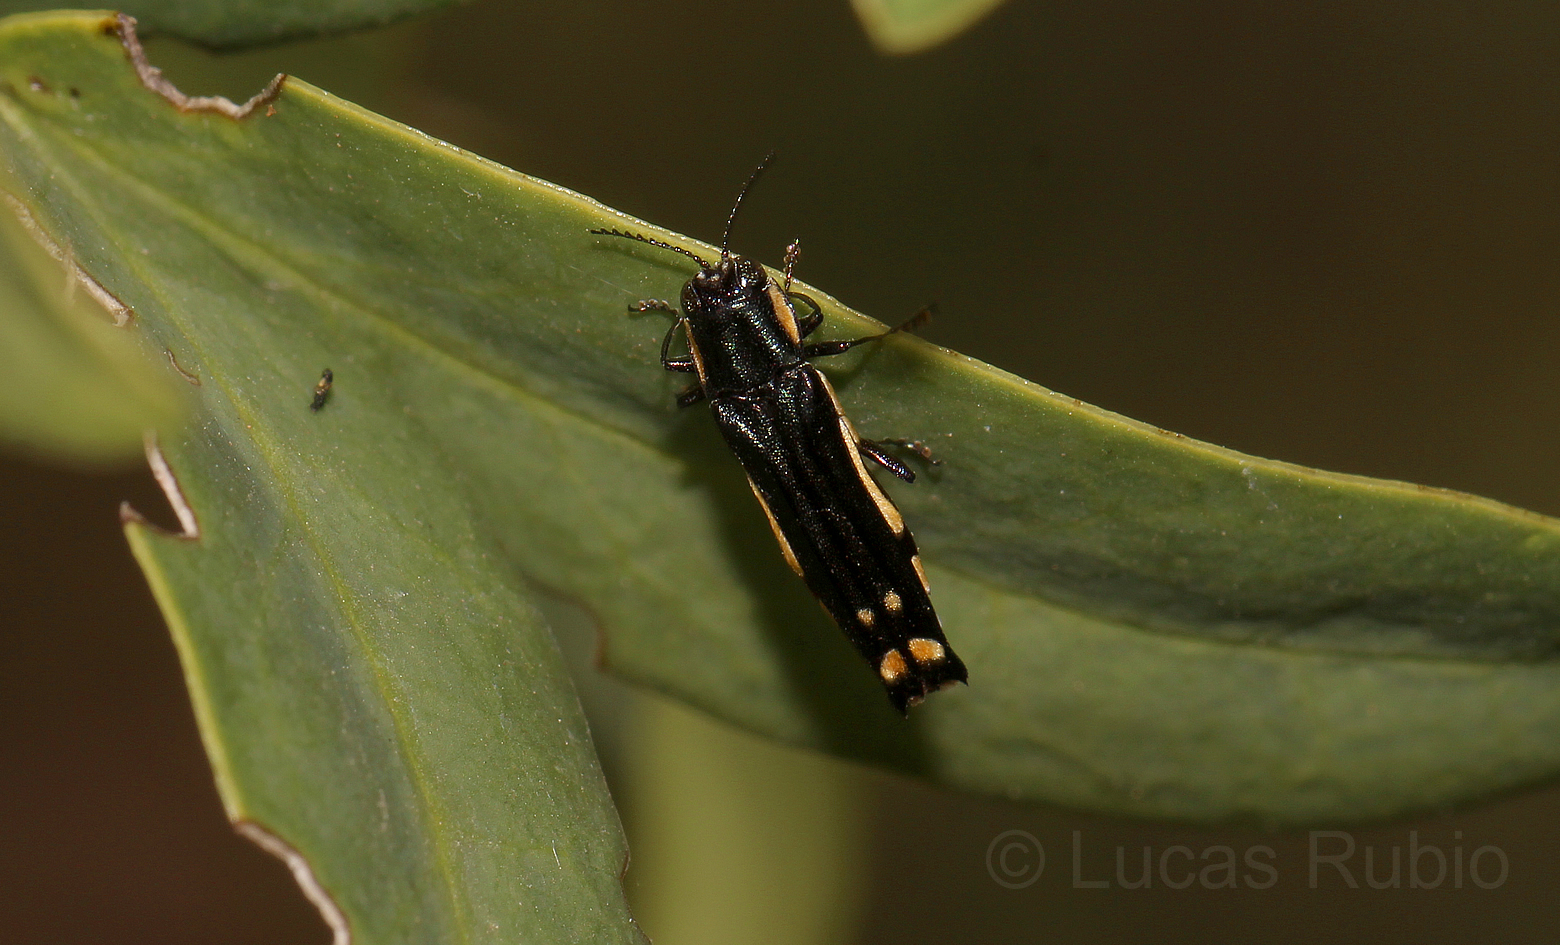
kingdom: Animalia
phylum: Arthropoda
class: Insecta
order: Coleoptera
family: Buprestidae
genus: Agrilus
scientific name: Agrilus chrysostictus
